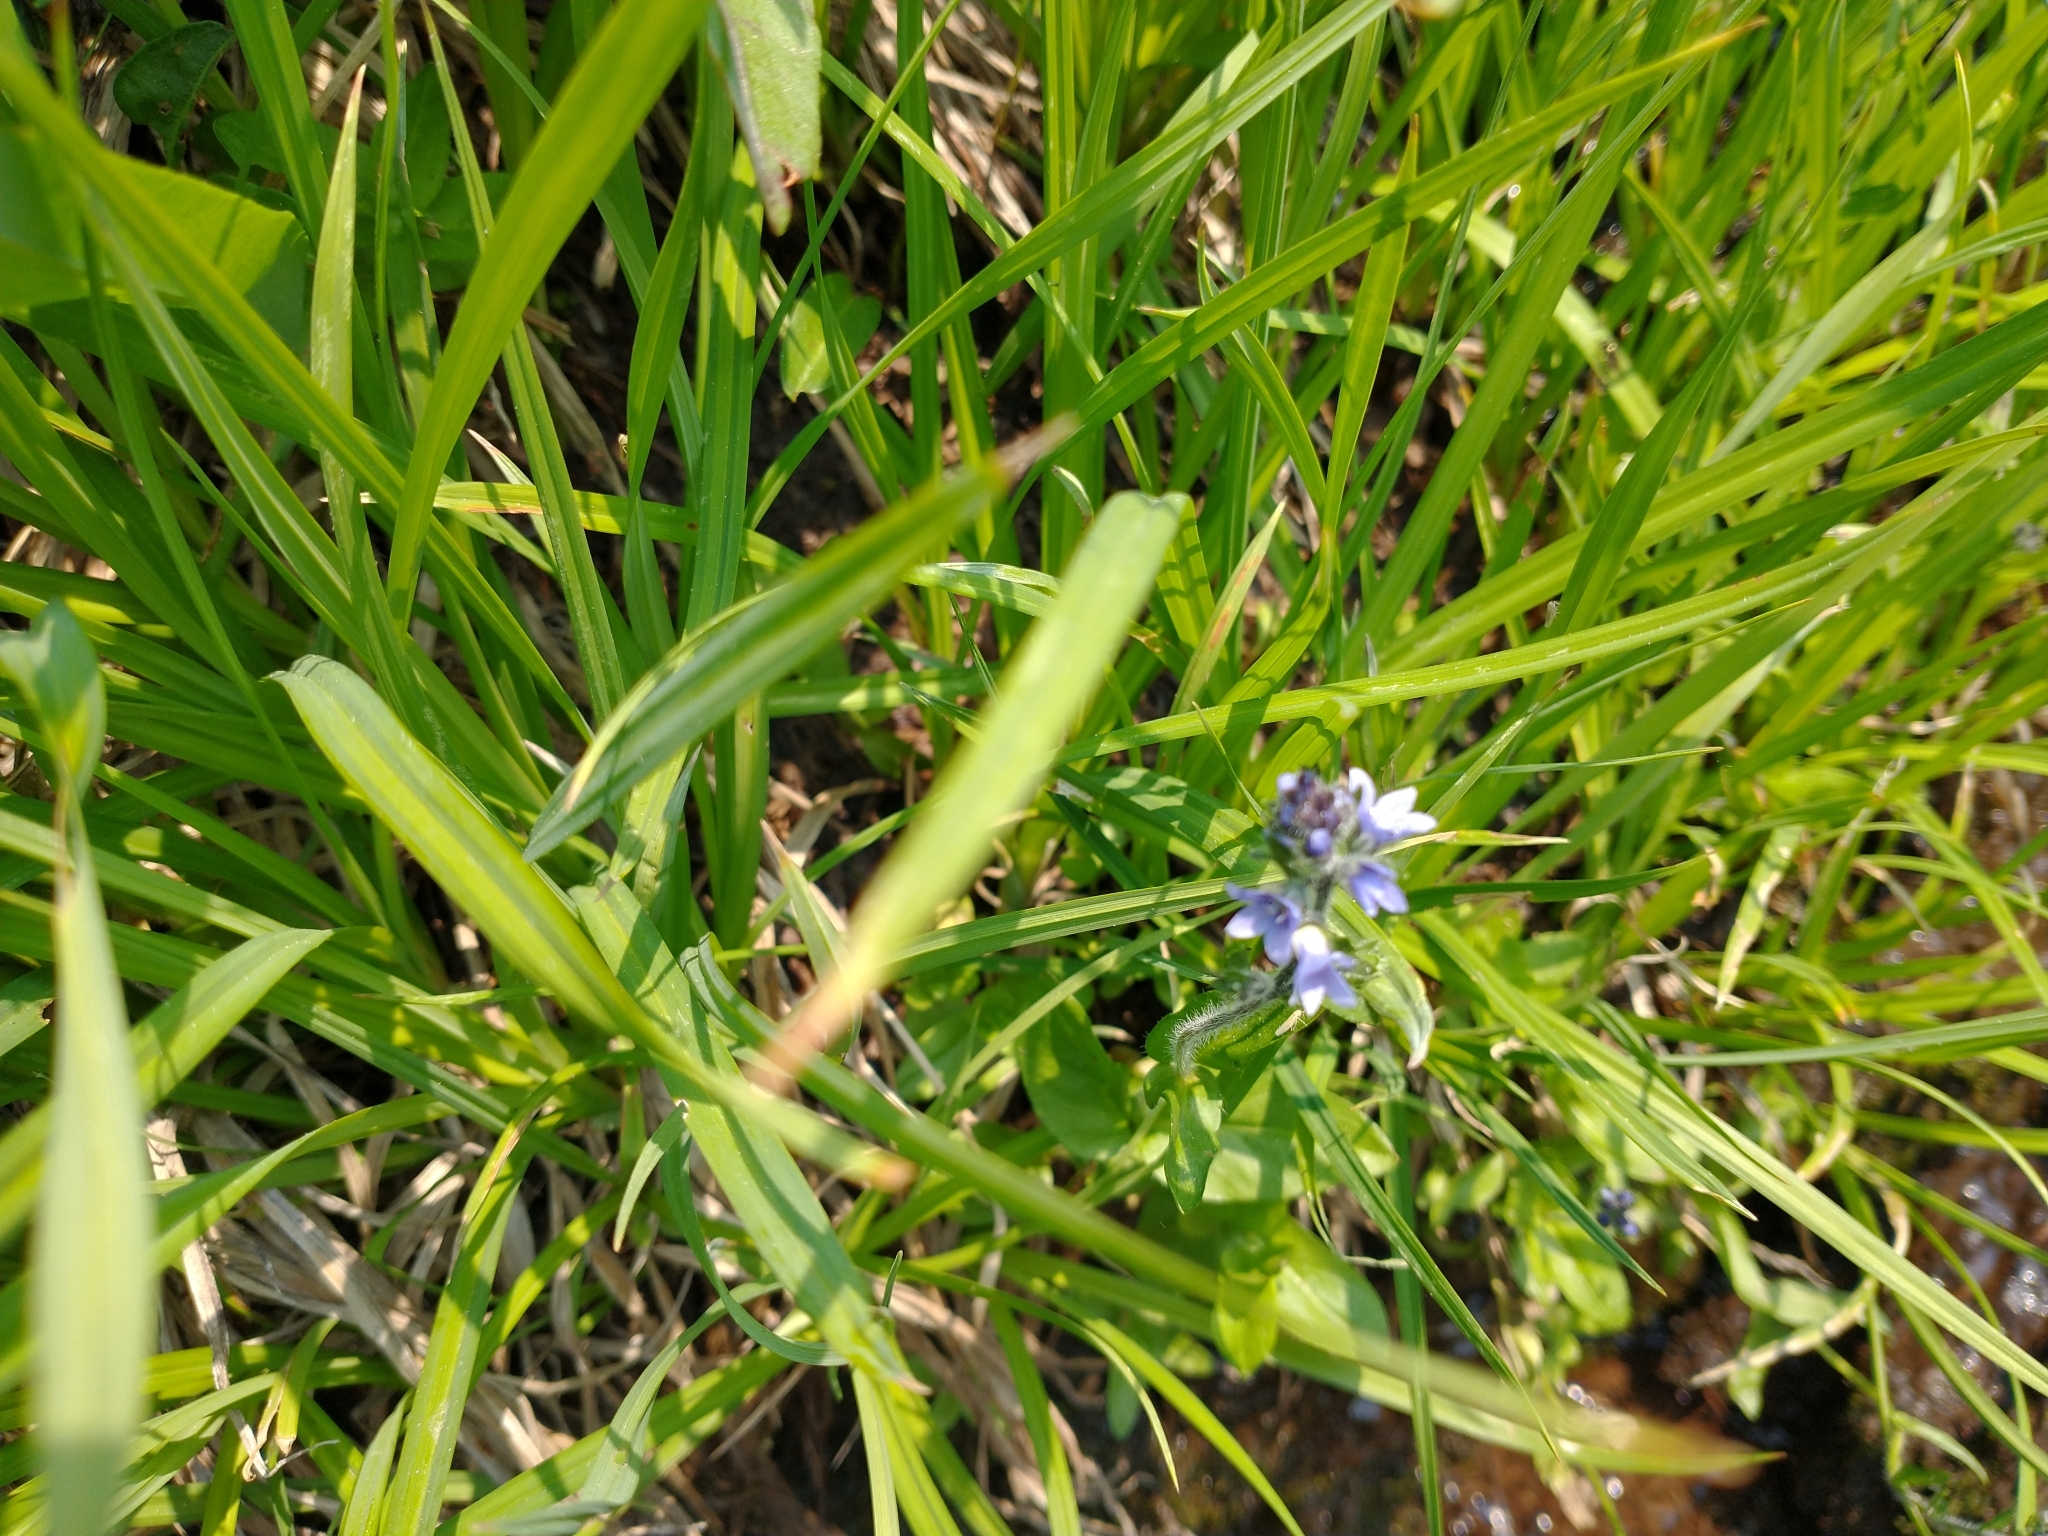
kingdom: Plantae
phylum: Tracheophyta
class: Magnoliopsida
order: Lamiales
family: Plantaginaceae
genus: Veronica
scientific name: Veronica wormskjoldii
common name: American alpine speedwell
